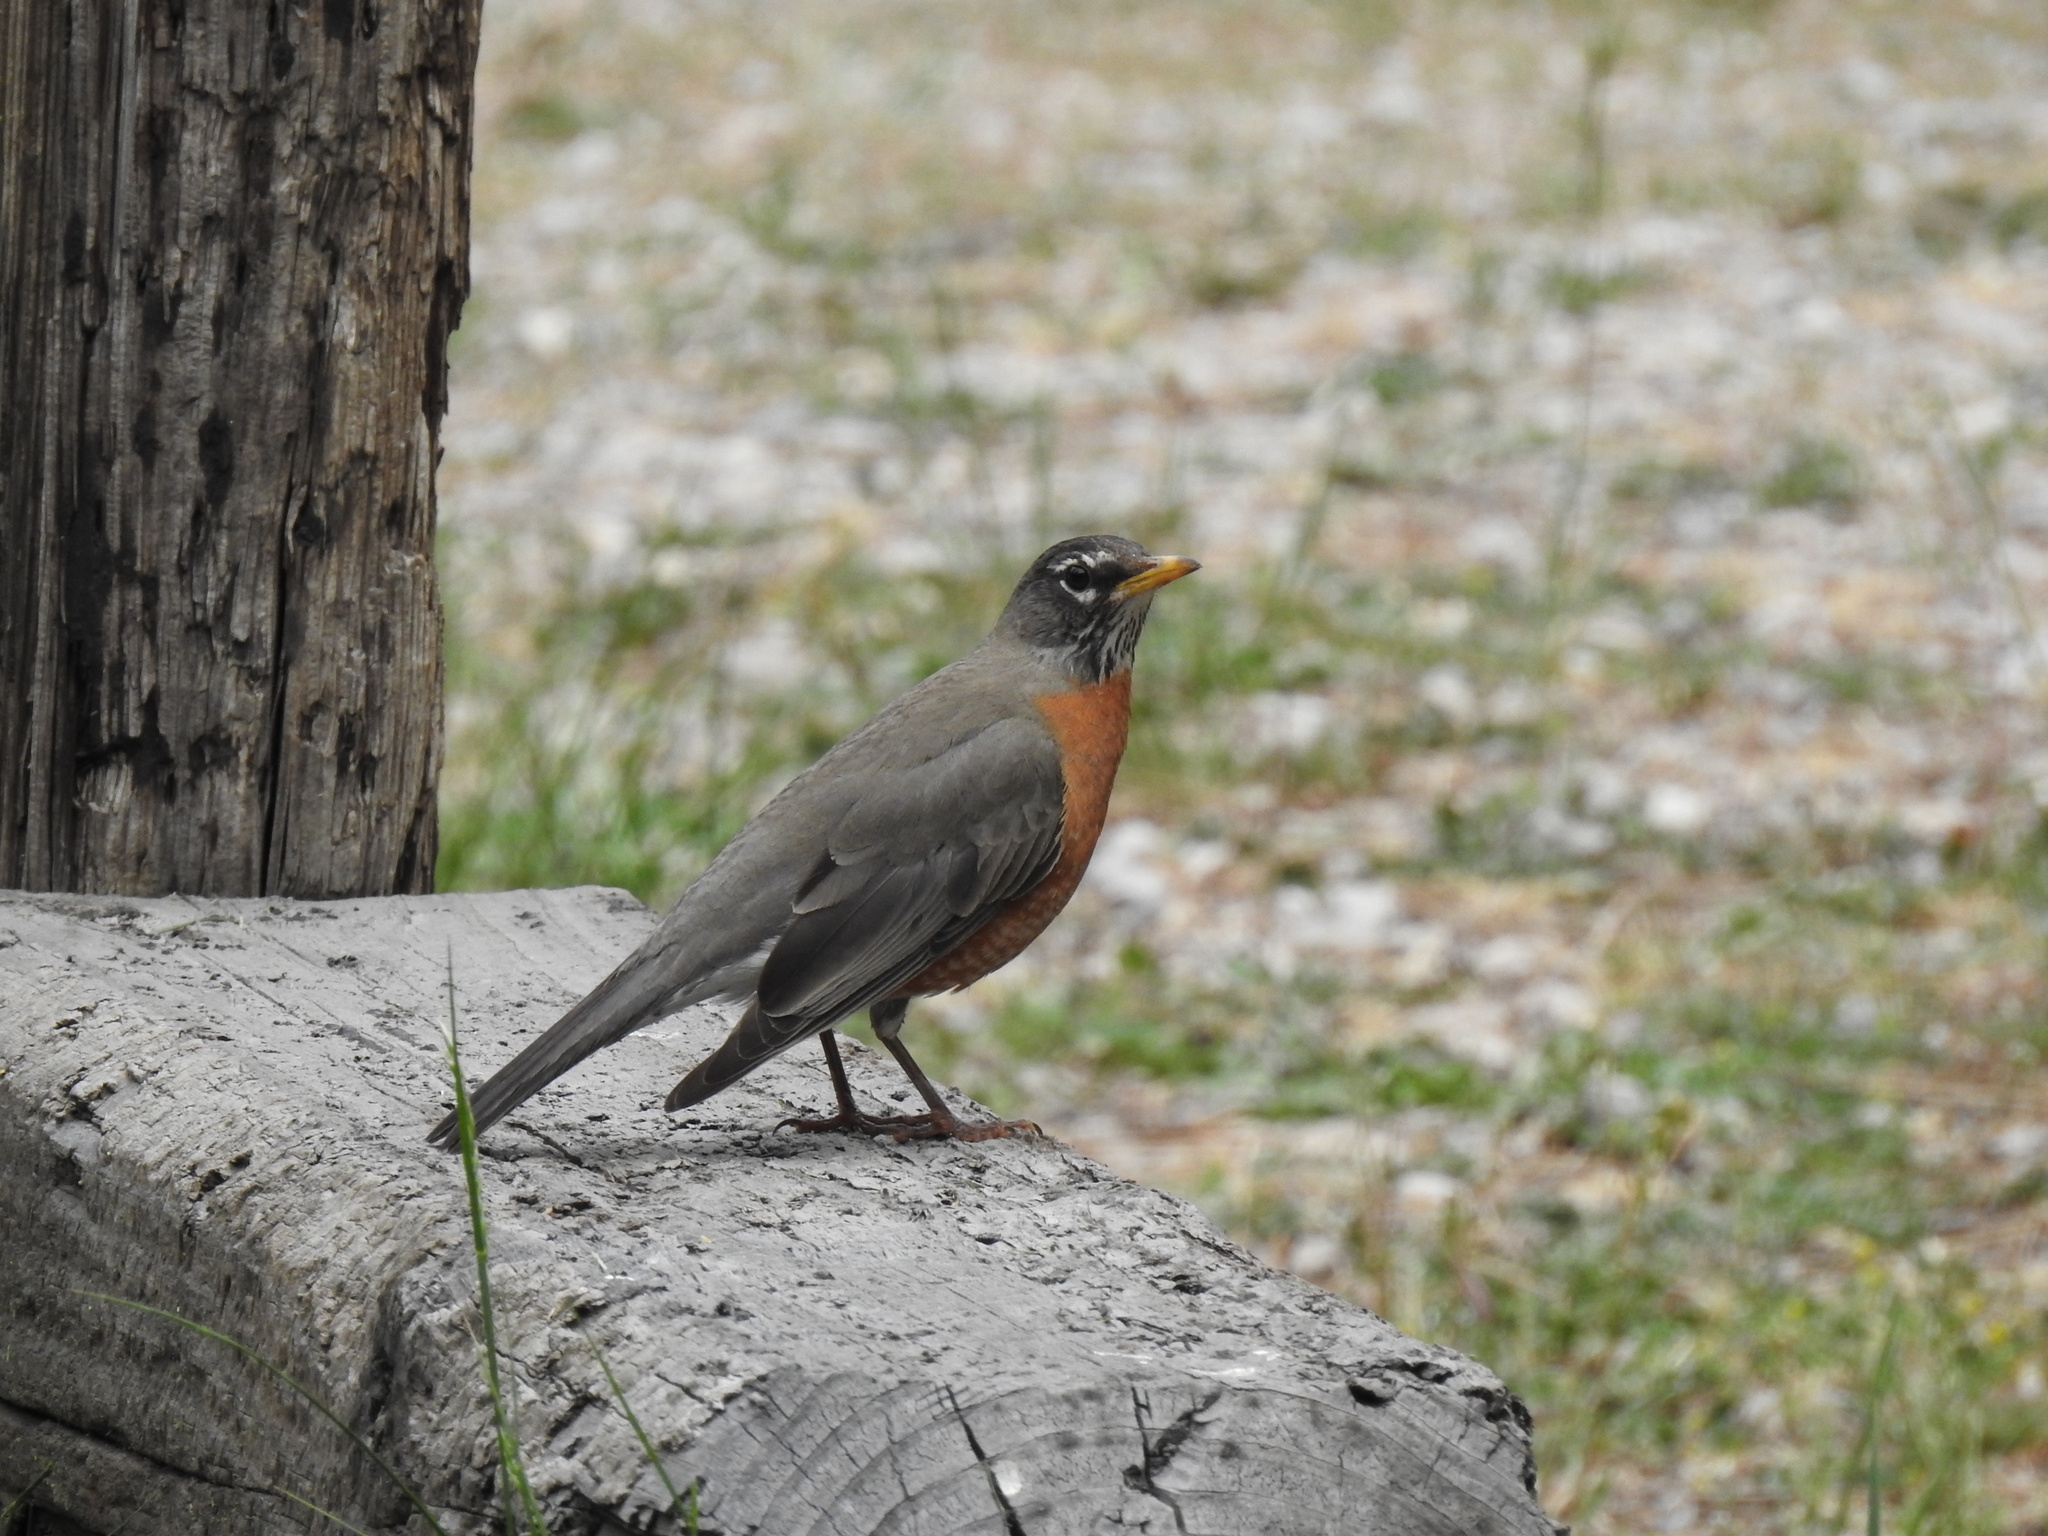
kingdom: Animalia
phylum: Chordata
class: Aves
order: Passeriformes
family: Turdidae
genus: Turdus
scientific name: Turdus migratorius
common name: American robin
